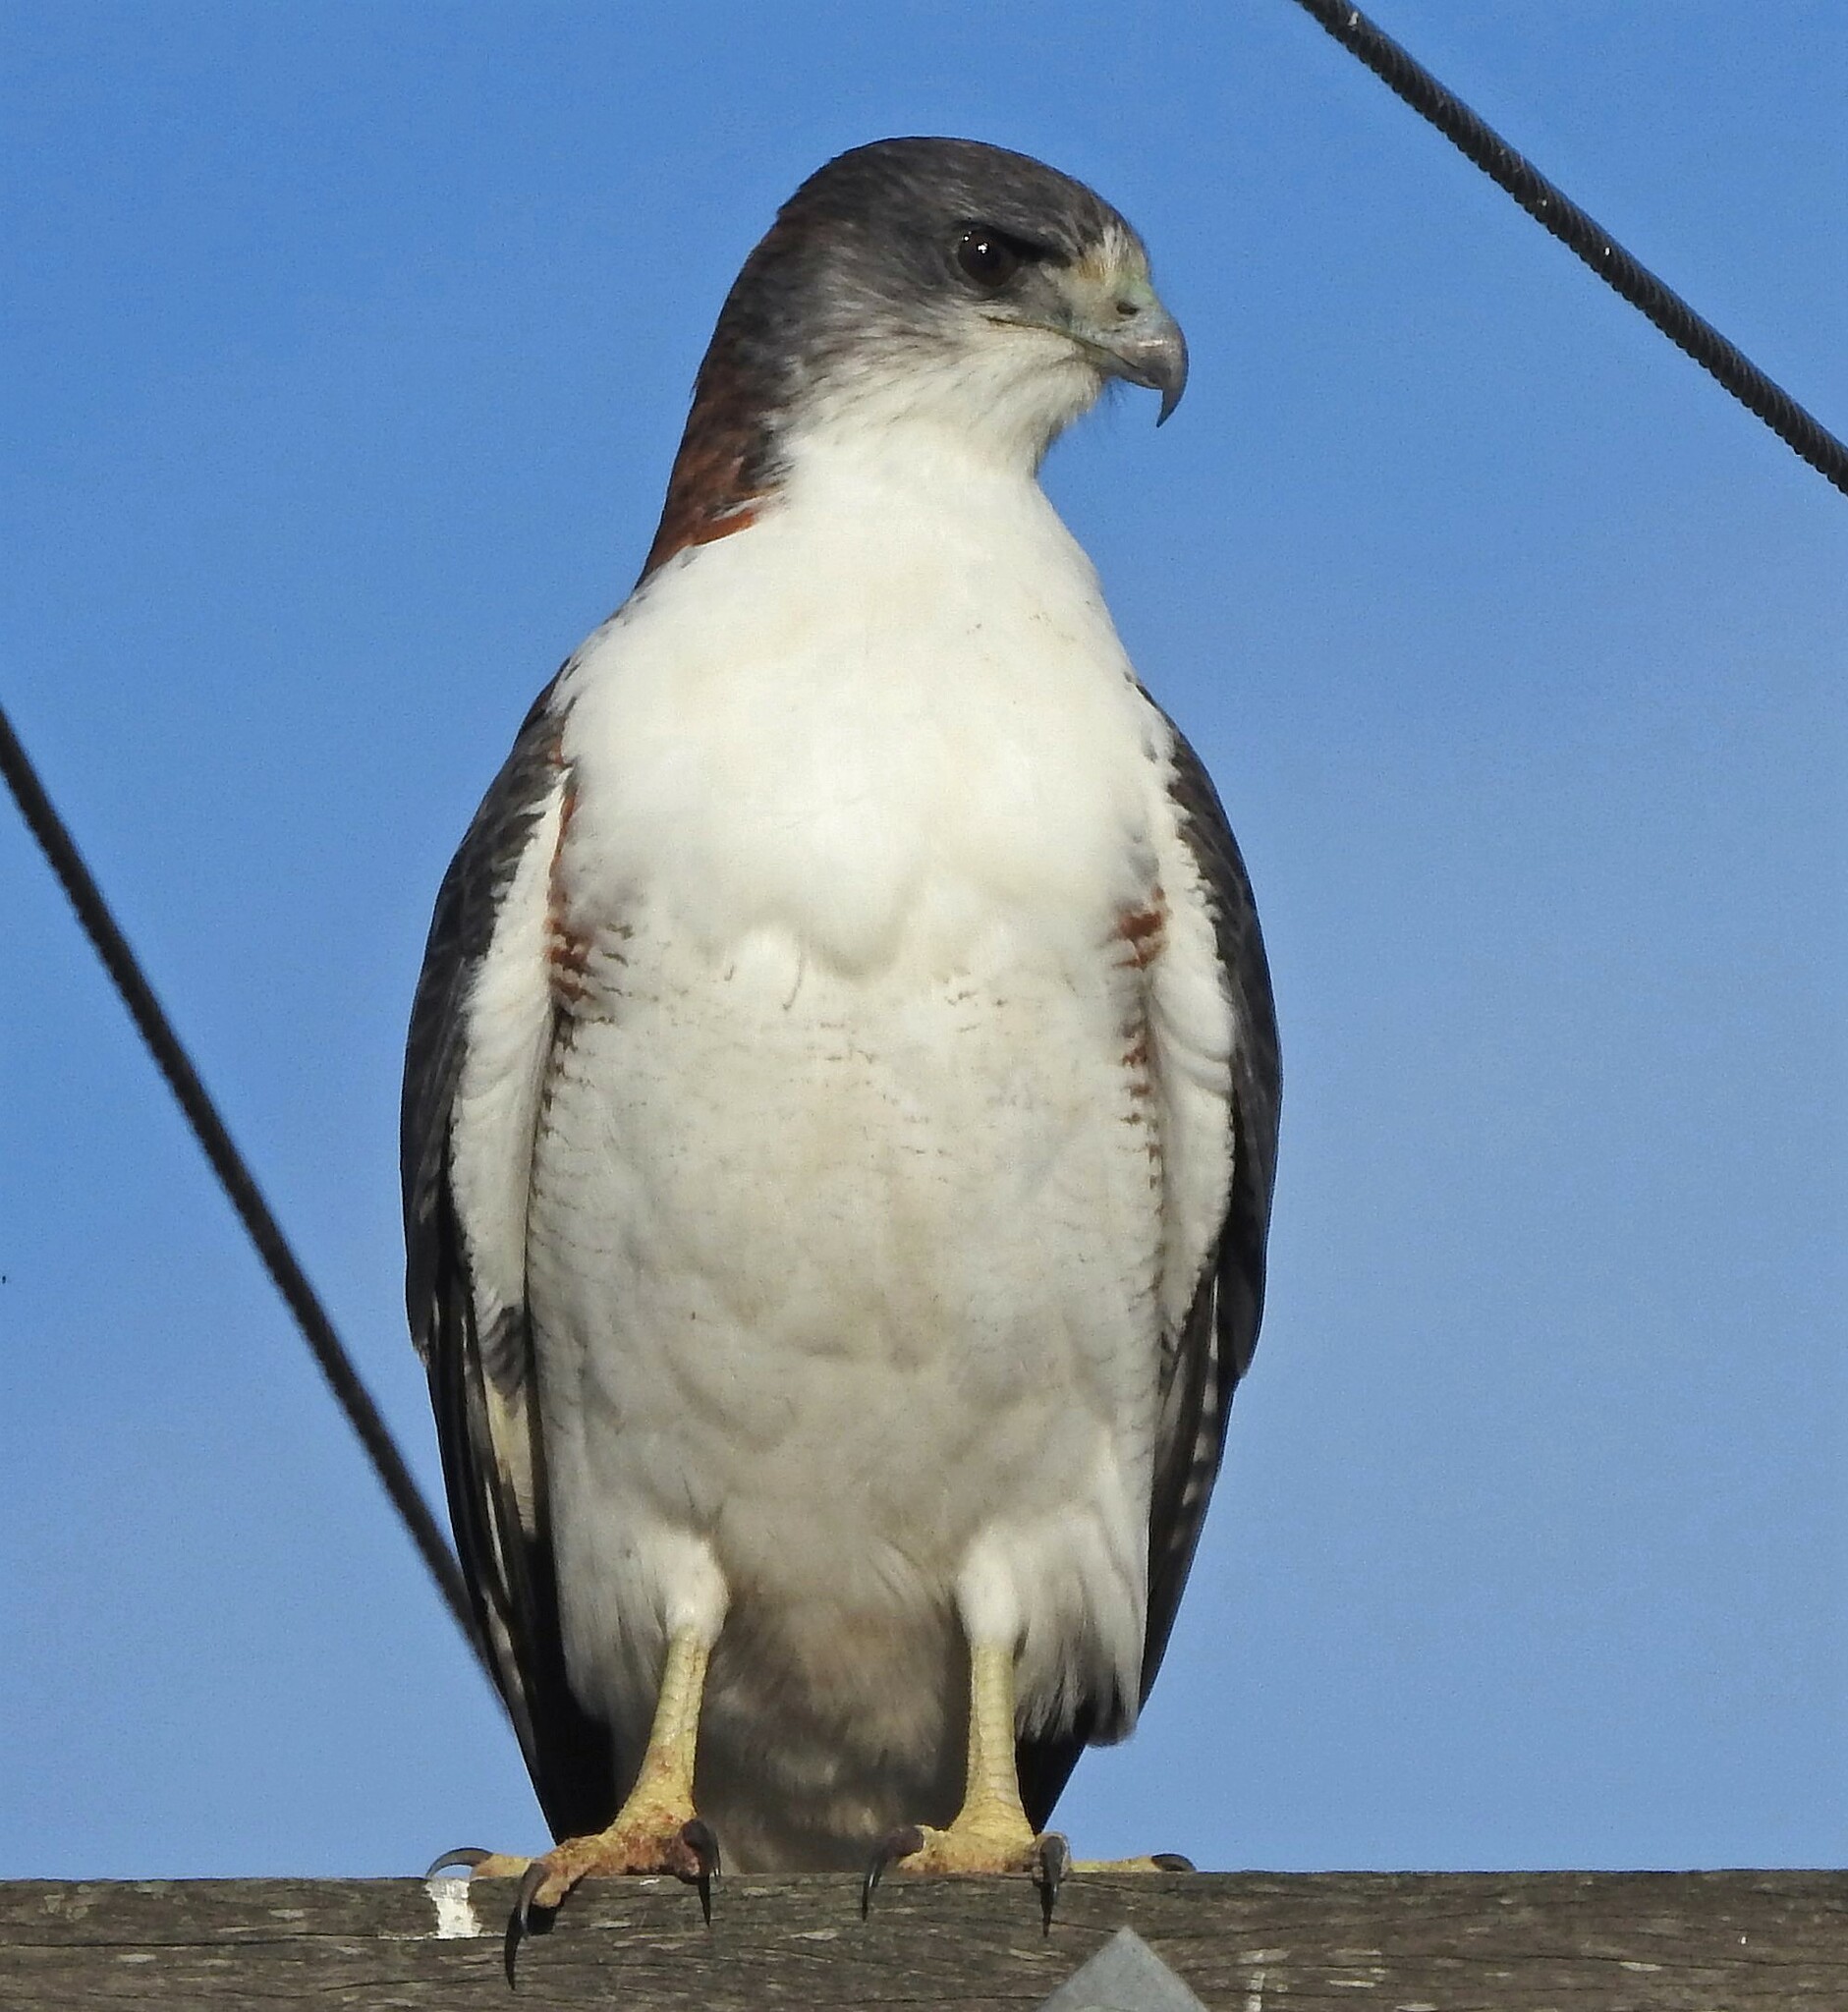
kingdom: Animalia
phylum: Chordata
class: Aves
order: Accipitriformes
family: Accipitridae
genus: Buteo
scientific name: Buteo polyosoma
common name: Variable hawk
